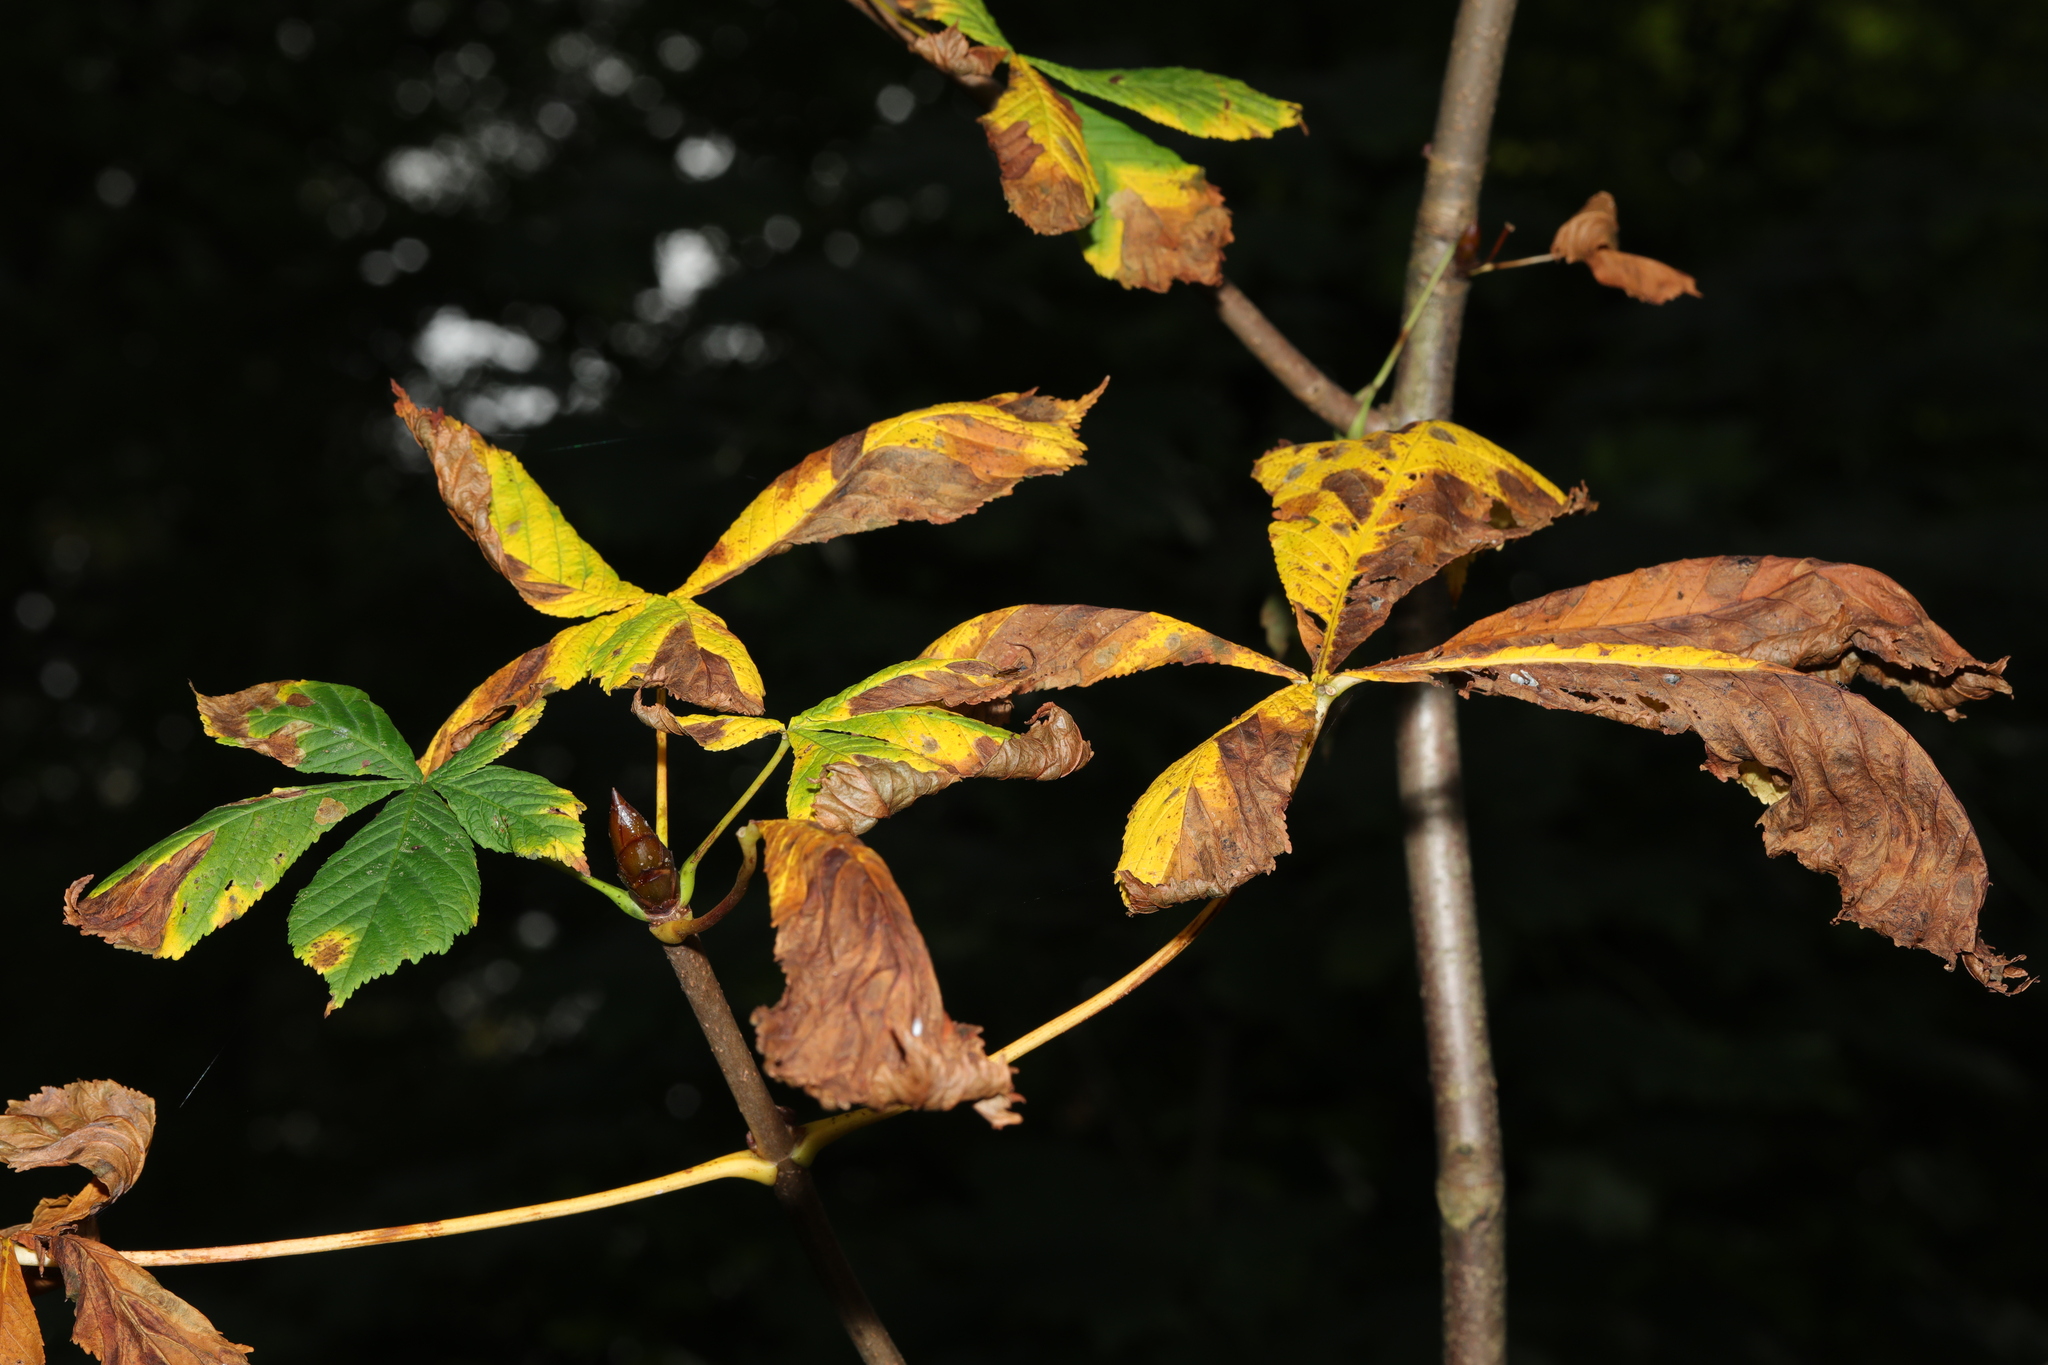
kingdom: Plantae
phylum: Tracheophyta
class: Magnoliopsida
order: Sapindales
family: Sapindaceae
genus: Aesculus
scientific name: Aesculus hippocastanum
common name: Horse-chestnut
